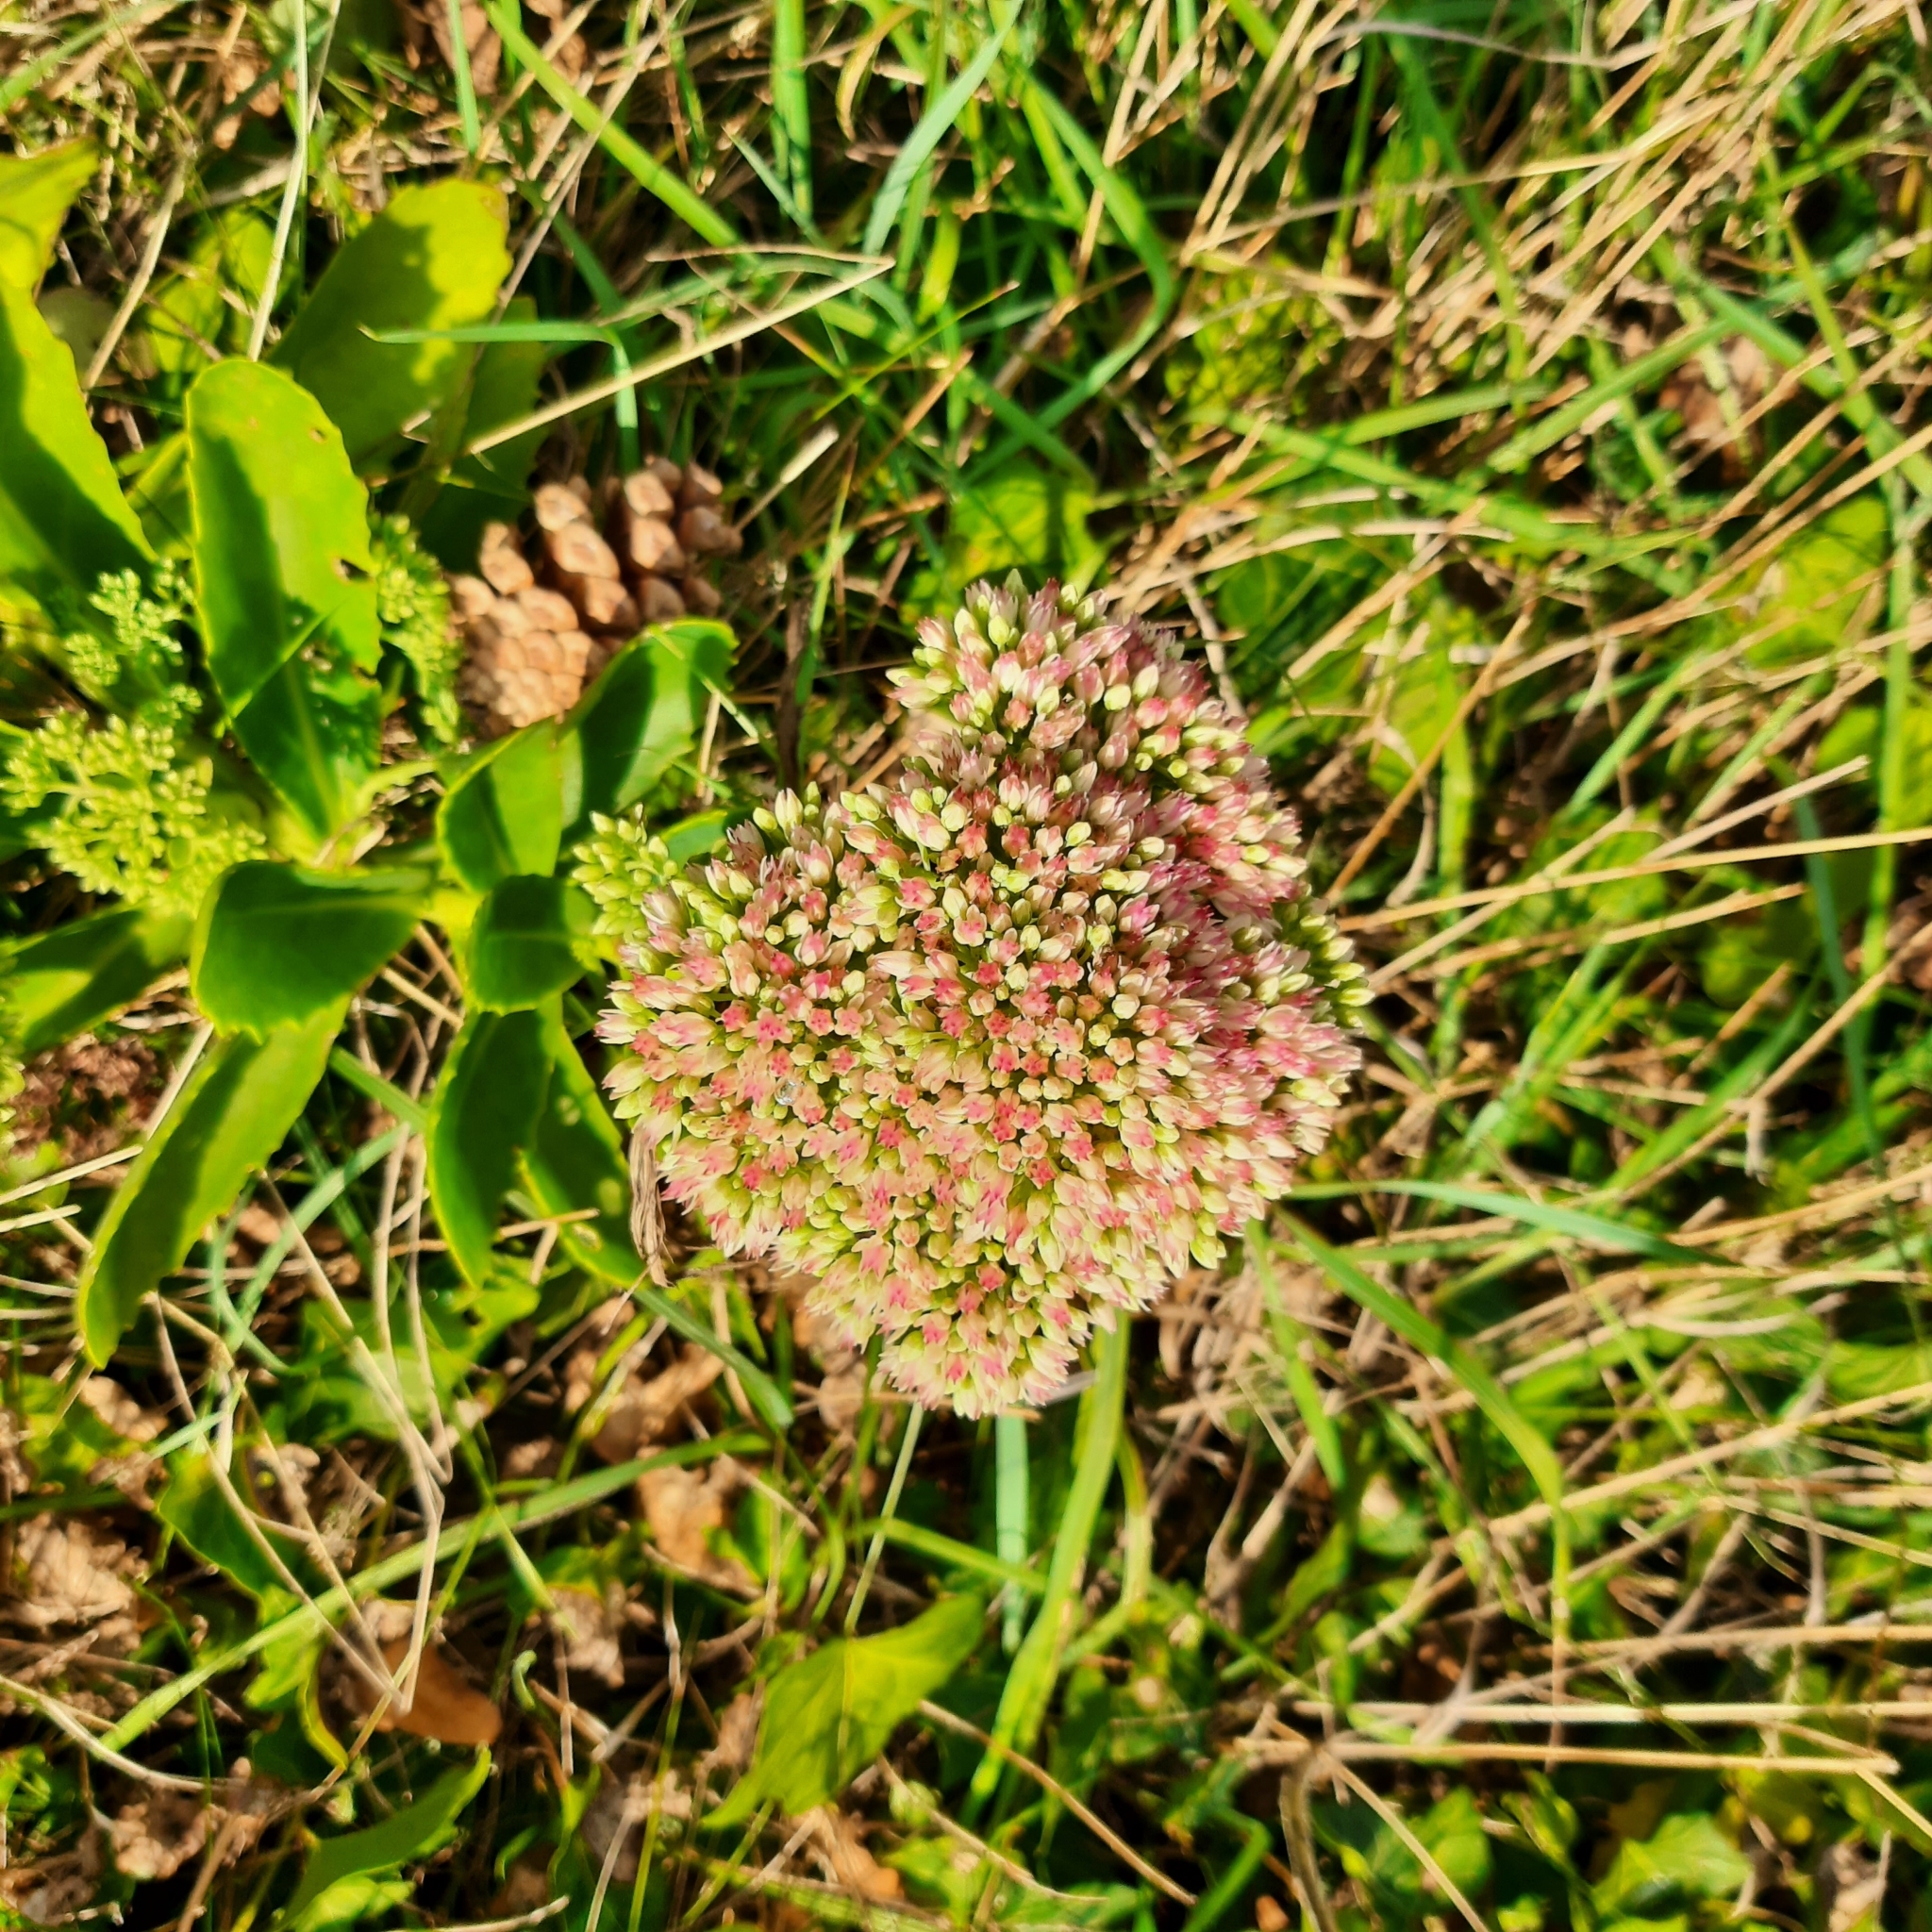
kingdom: Plantae
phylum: Tracheophyta
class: Magnoliopsida
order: Saxifragales
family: Crassulaceae
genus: Hylotelephium
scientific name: Hylotelephium
